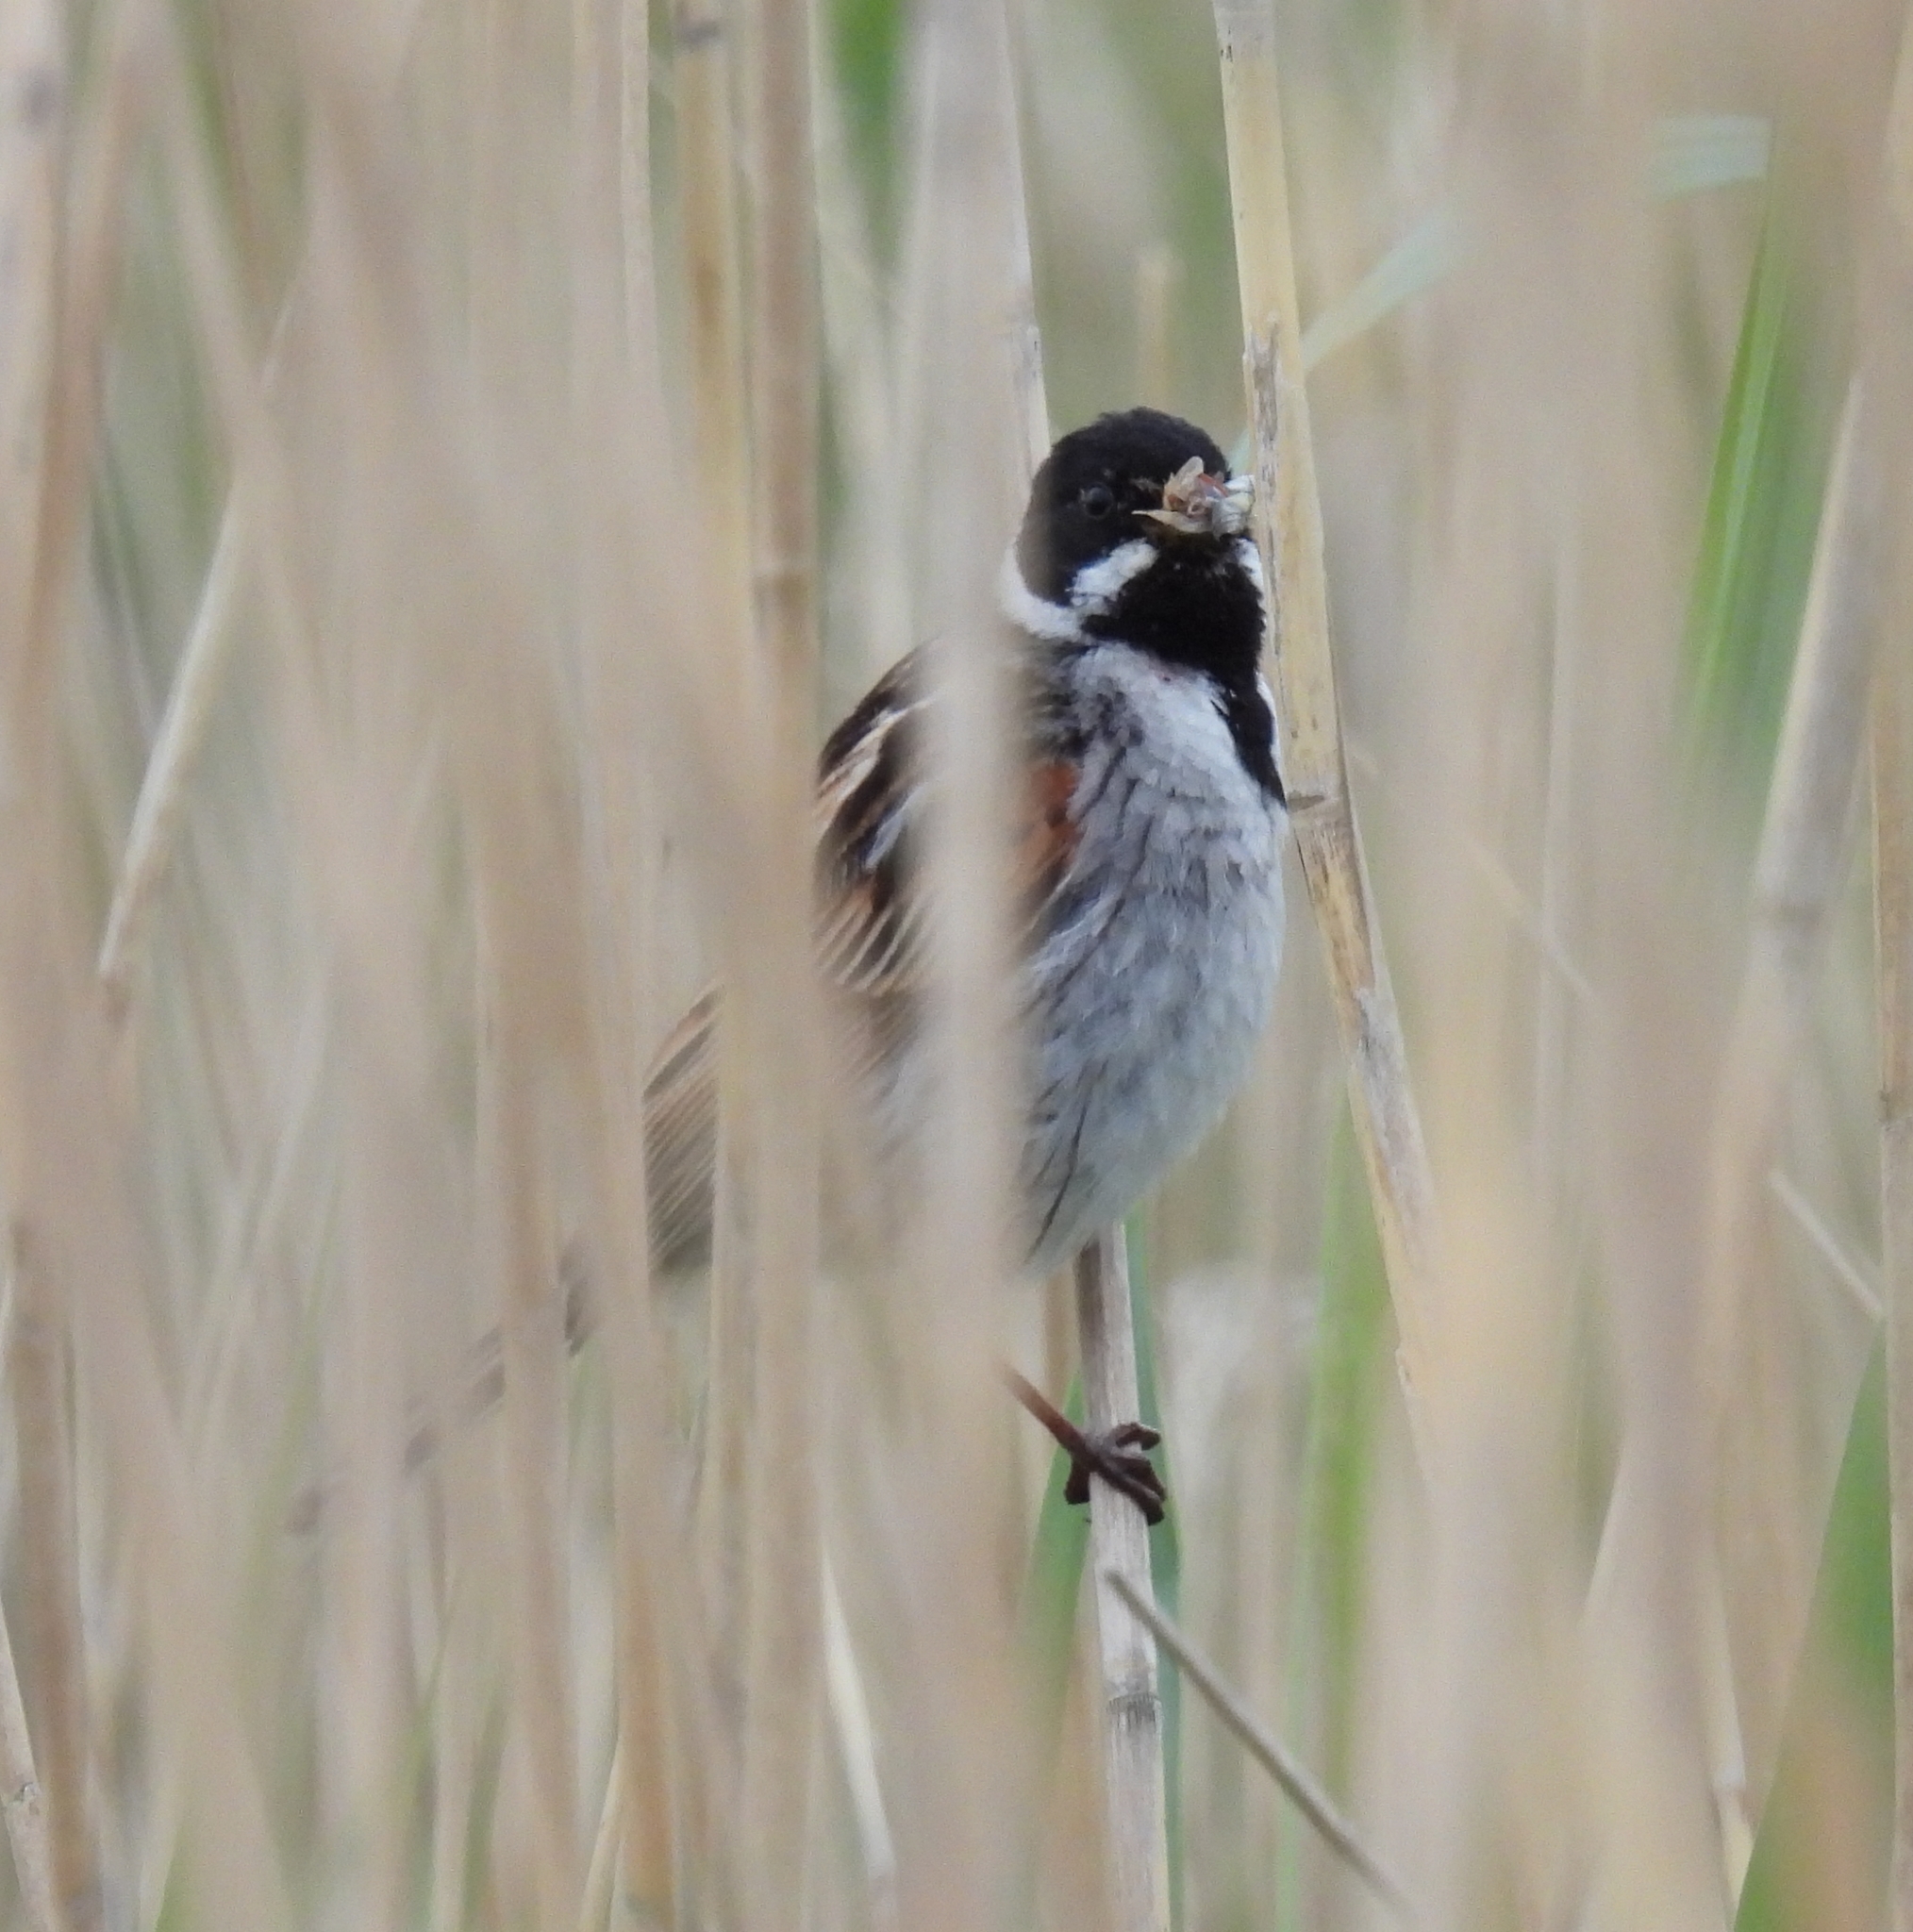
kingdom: Animalia
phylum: Chordata
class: Aves
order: Passeriformes
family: Emberizidae
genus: Emberiza
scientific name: Emberiza schoeniclus
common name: Reed bunting
